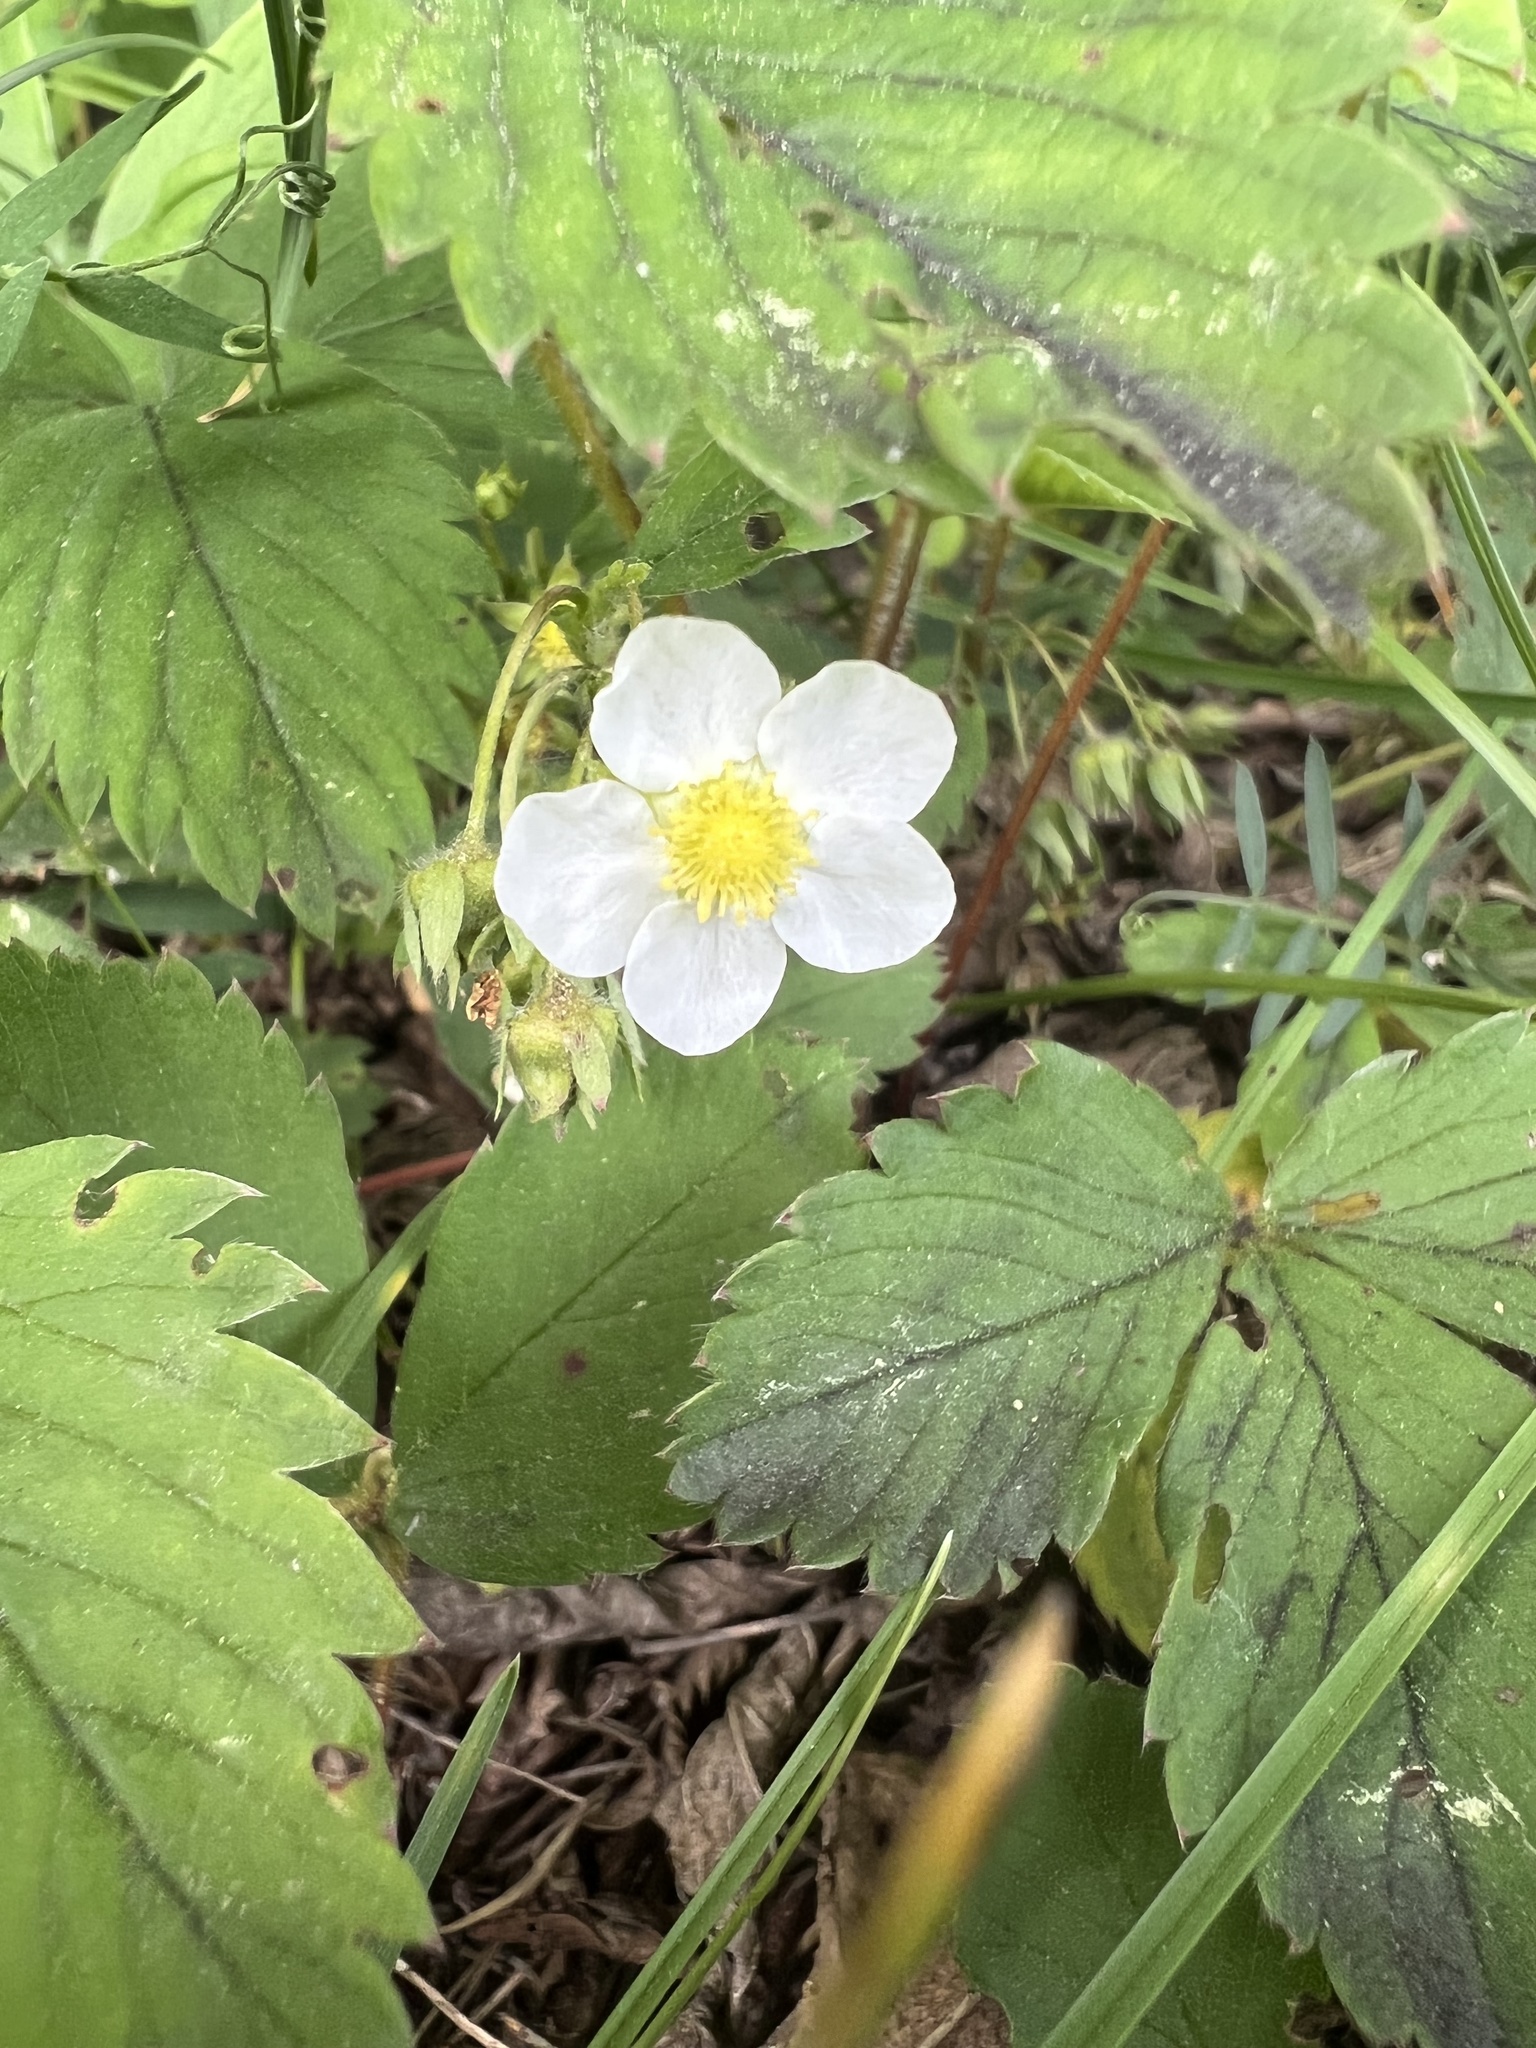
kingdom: Plantae
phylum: Tracheophyta
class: Magnoliopsida
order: Rosales
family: Rosaceae
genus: Fragaria
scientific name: Fragaria virginiana
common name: Thickleaved wild strawberry
